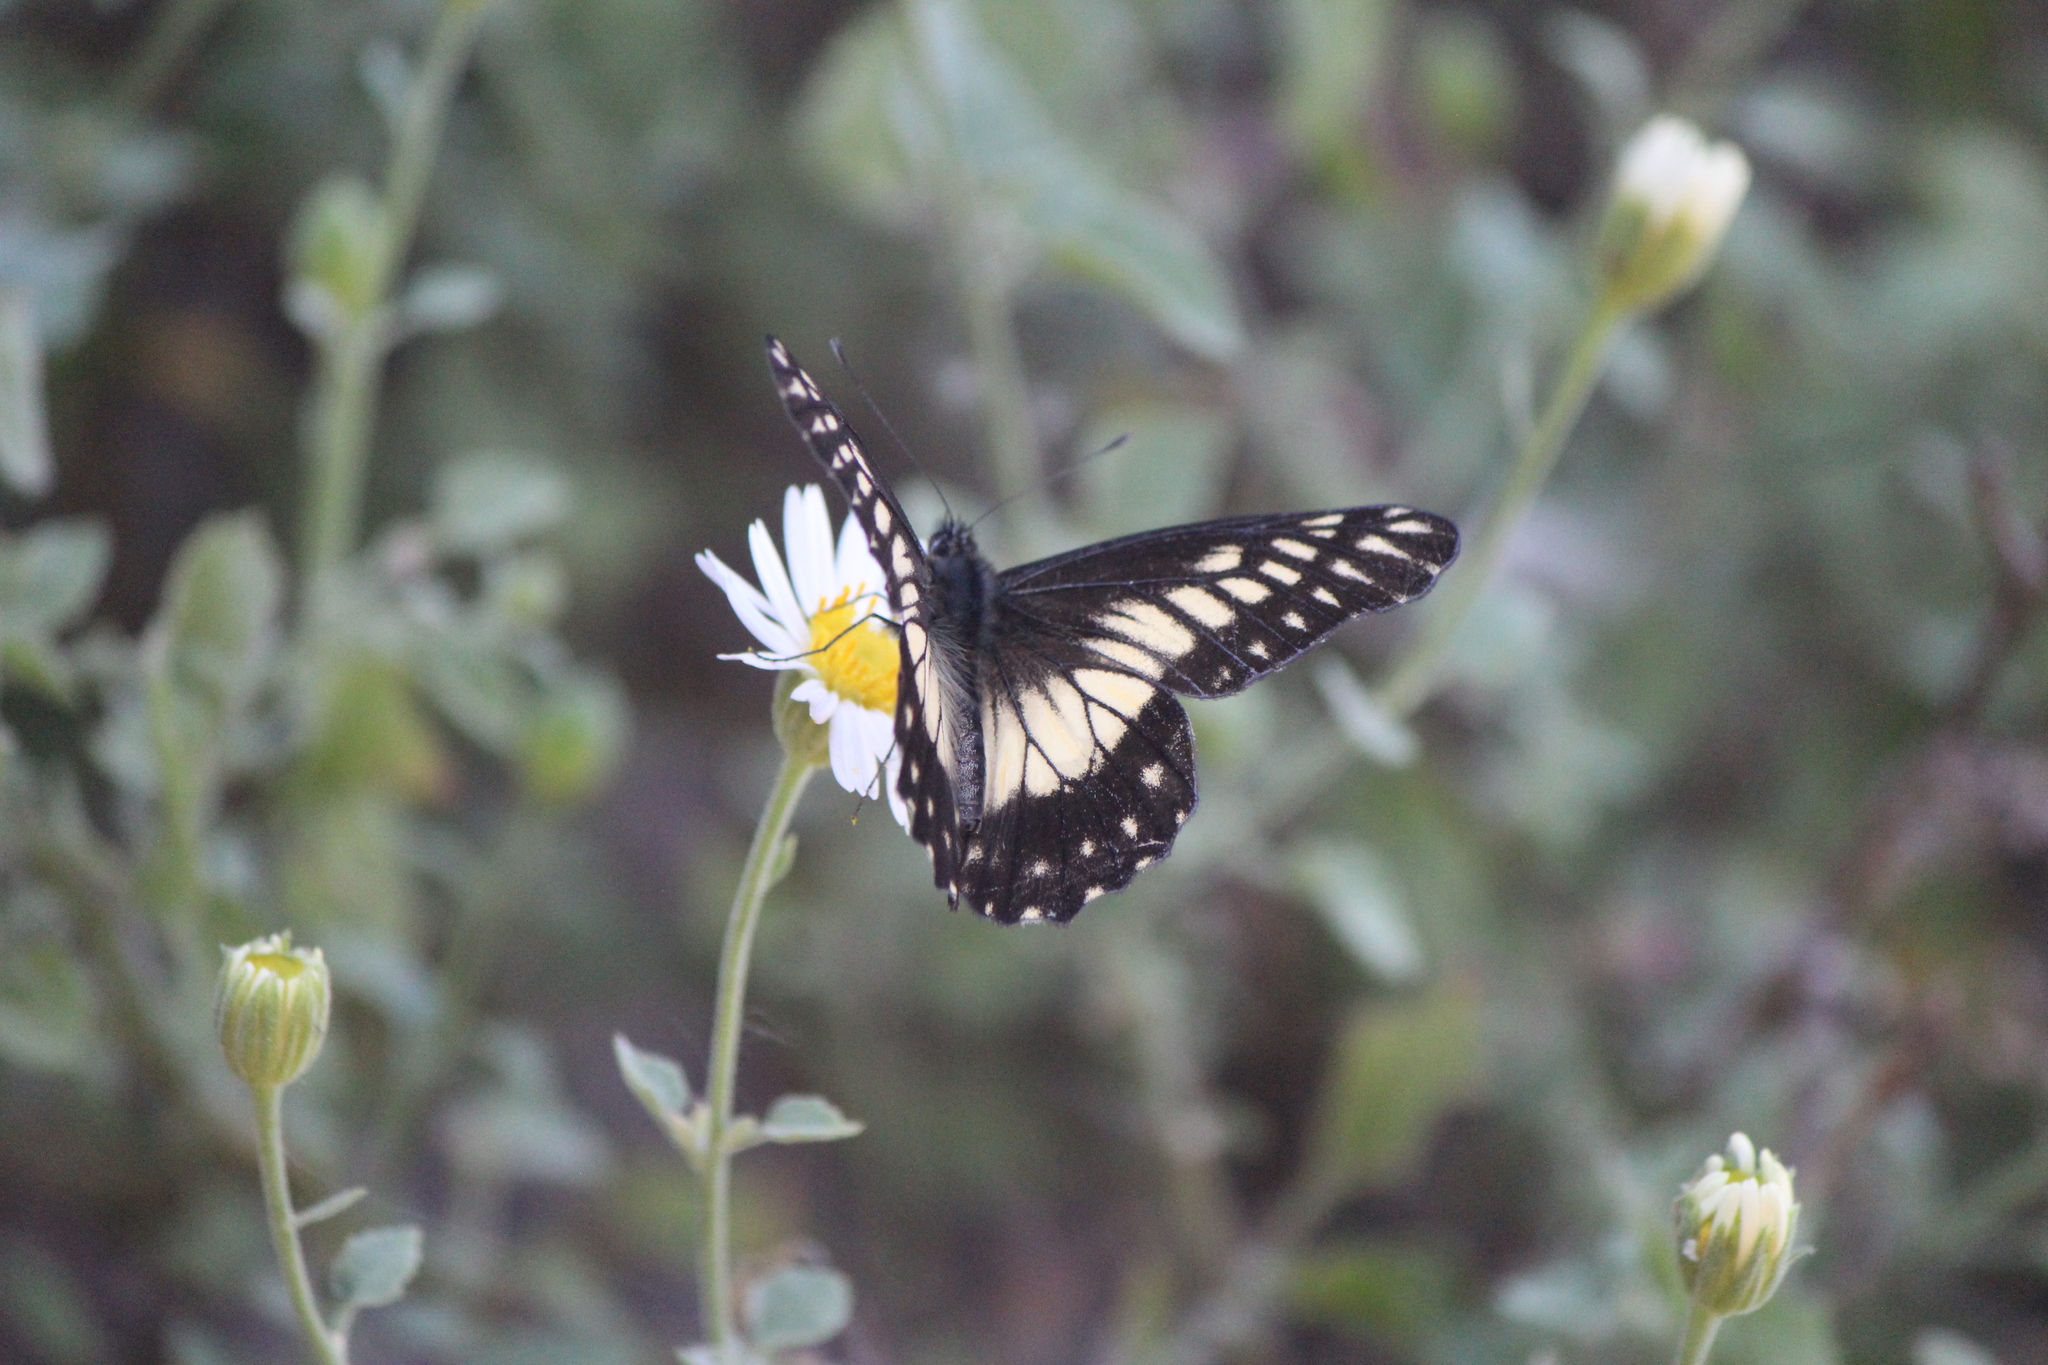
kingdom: Animalia
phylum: Arthropoda
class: Insecta
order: Lepidoptera
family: Pieridae
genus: Archonias
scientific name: Archonias nimbice
